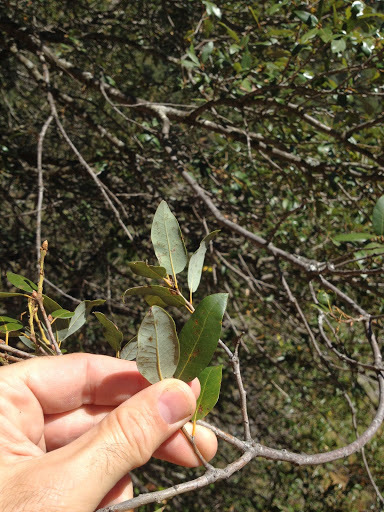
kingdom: Plantae
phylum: Tracheophyta
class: Magnoliopsida
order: Fagales
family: Fagaceae
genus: Quercus
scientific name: Quercus chrysolepis
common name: Canyon live oak
